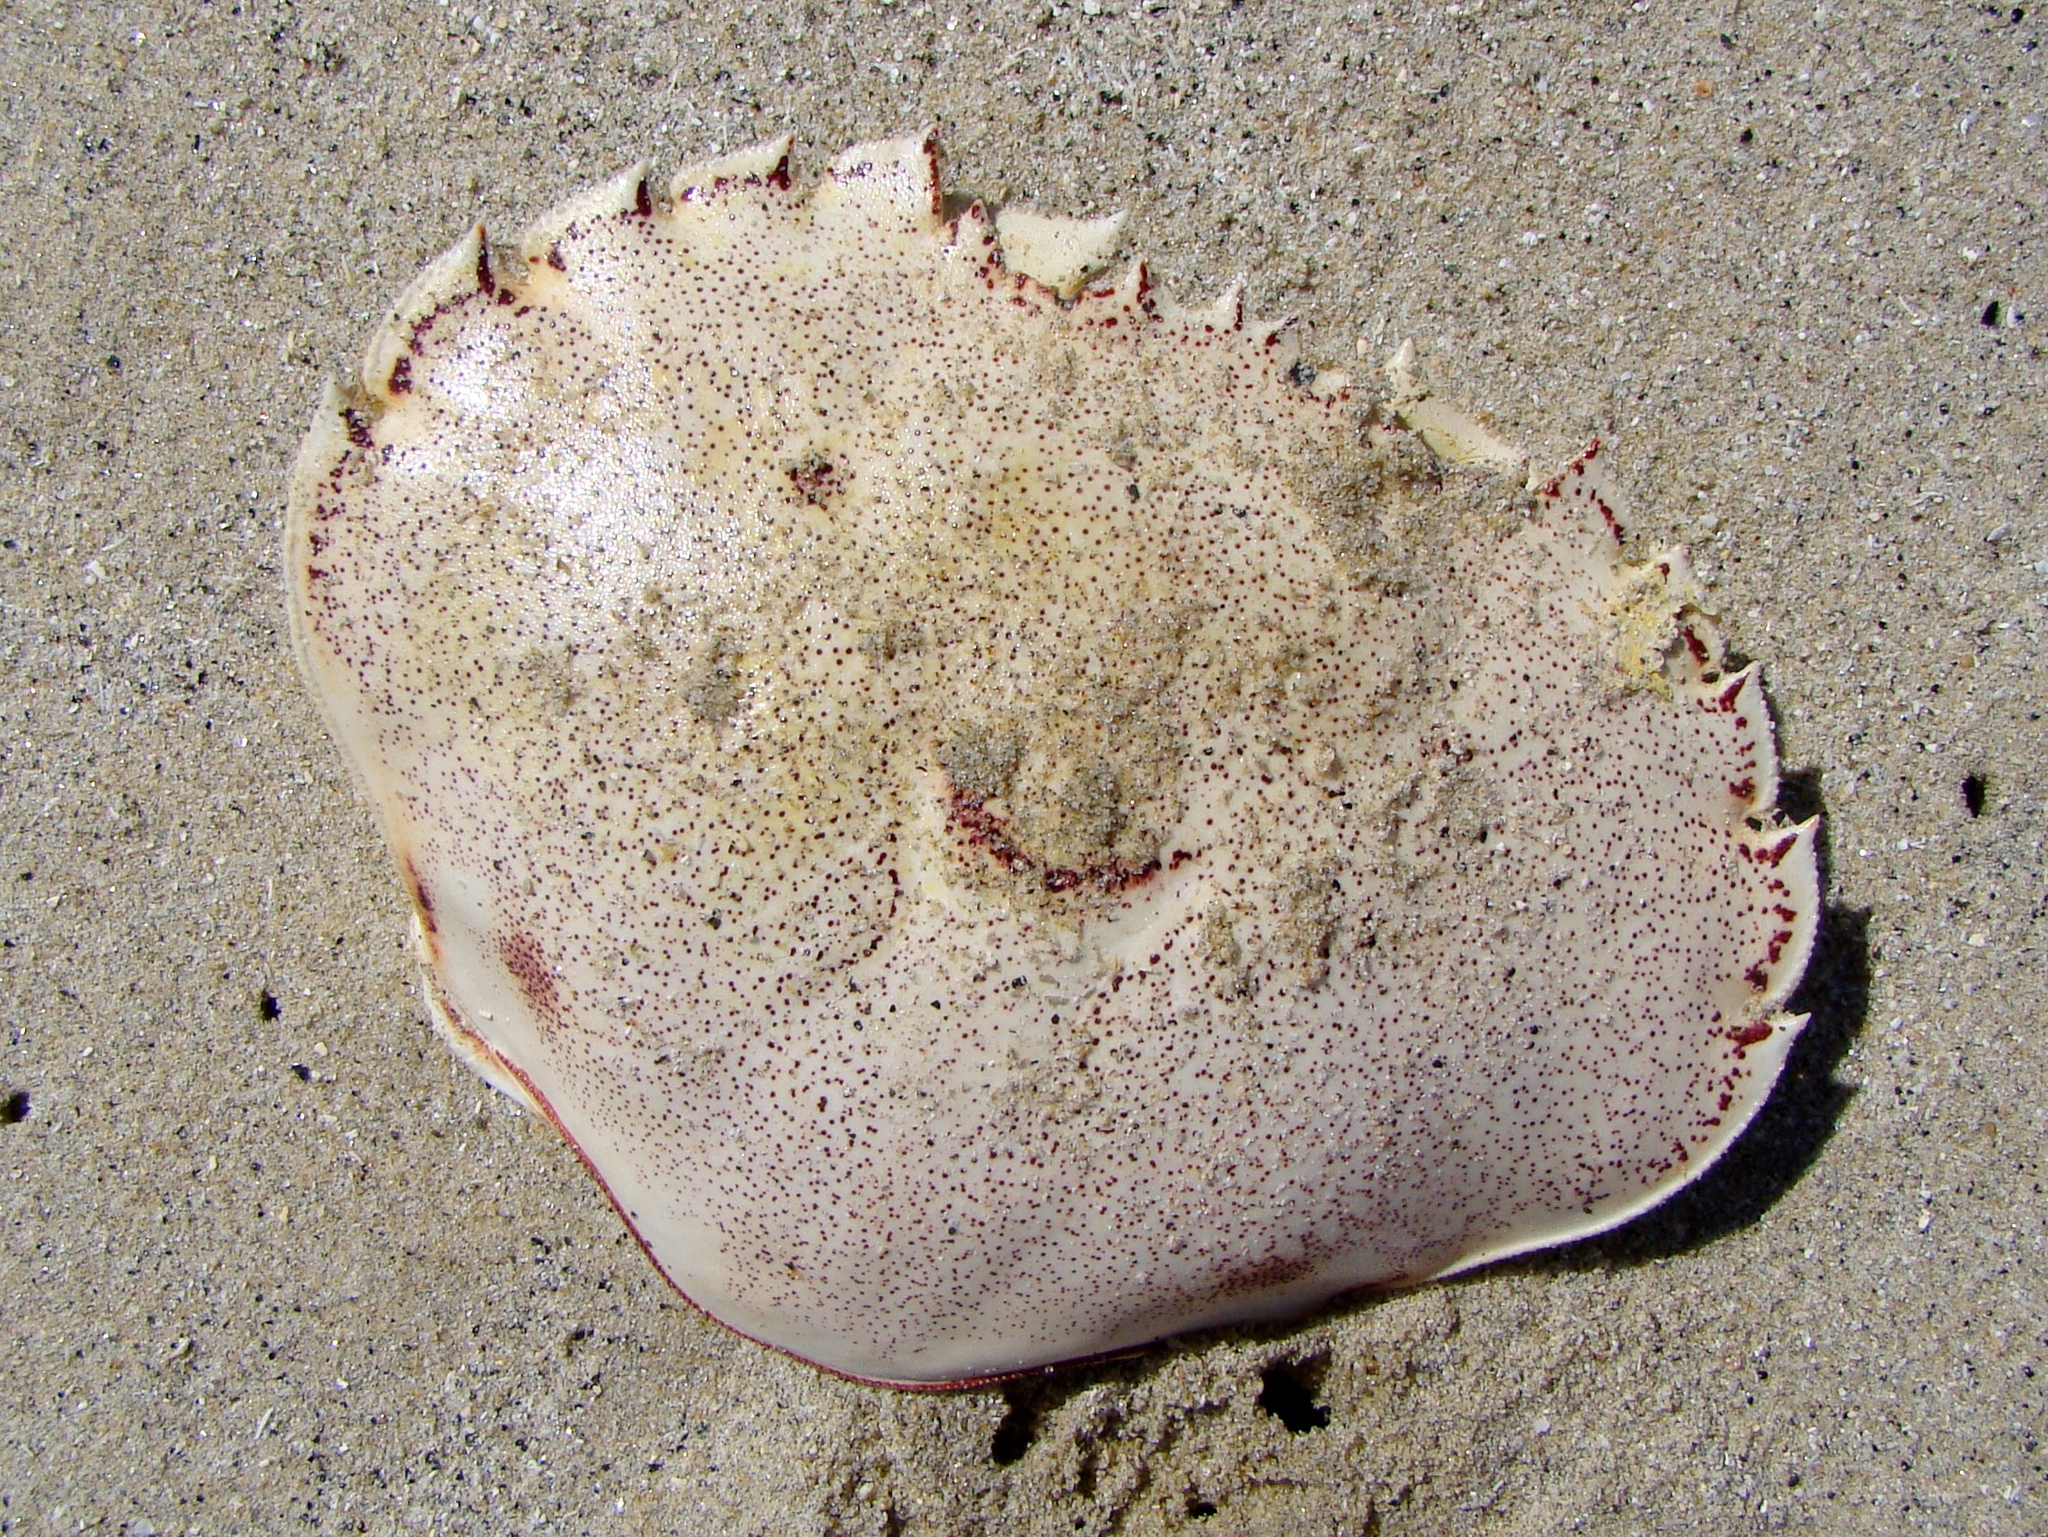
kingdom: Animalia
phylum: Arthropoda
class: Malacostraca
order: Decapoda
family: Ovalipidae
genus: Ovalipes
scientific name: Ovalipes catharus
